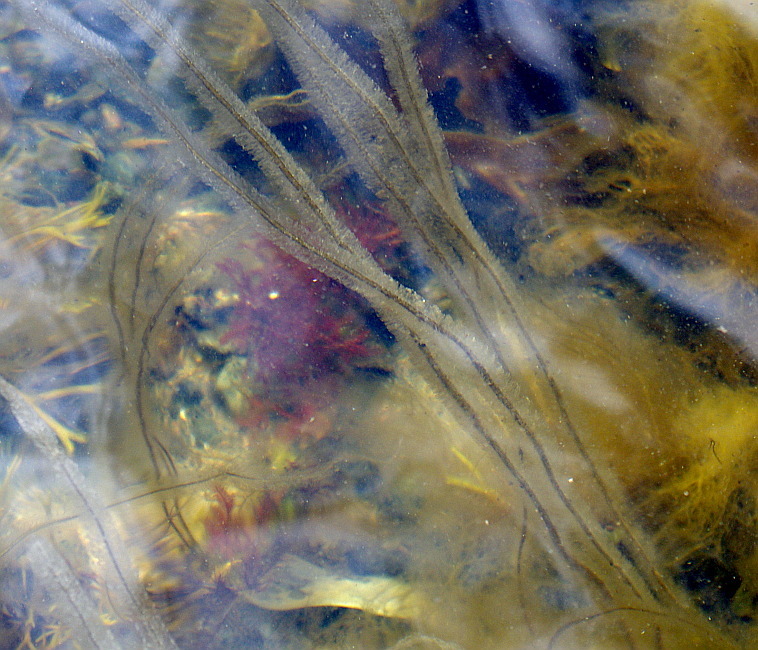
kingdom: Chromista
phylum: Ochrophyta
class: Phaeophyceae
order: Tilopteridales
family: Halosiphonaceae
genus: Halosiphon
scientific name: Halosiphon tomentosus
